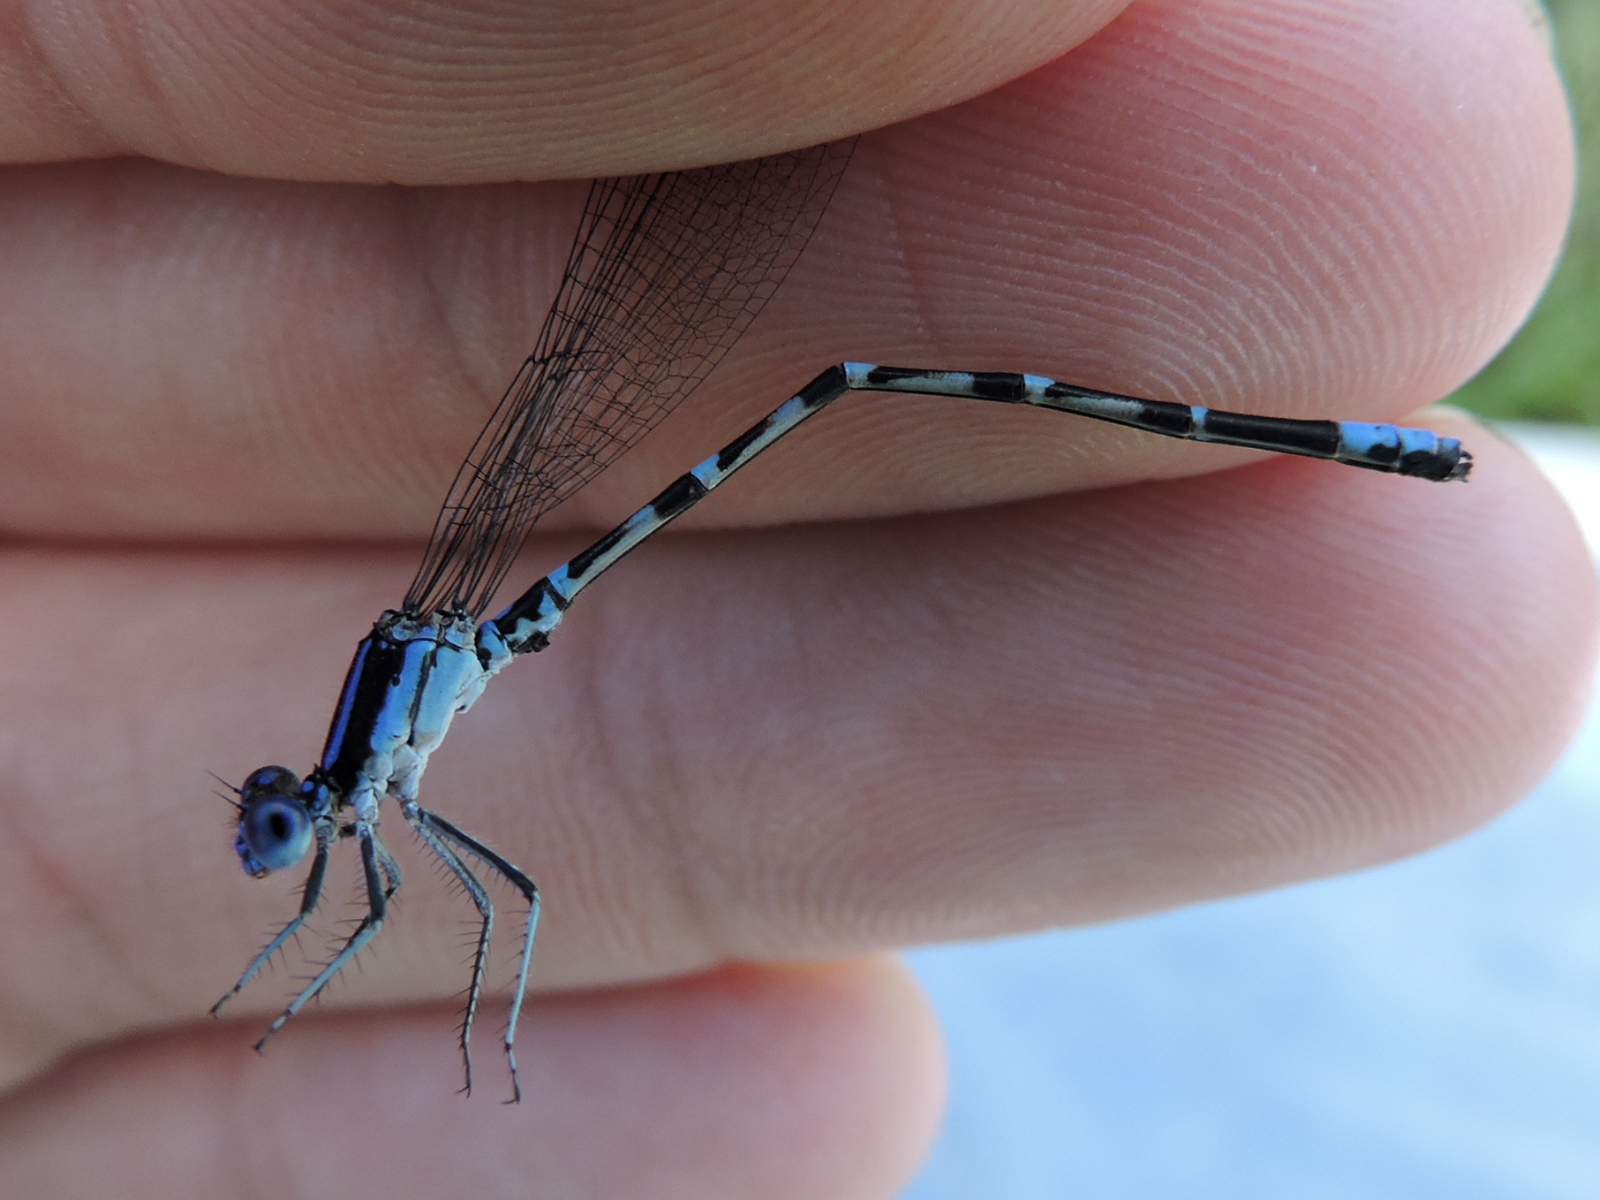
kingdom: Animalia
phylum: Arthropoda
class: Insecta
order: Odonata
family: Coenagrionidae
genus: Argia
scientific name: Argia sedula
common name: Blue-ringed dancer
